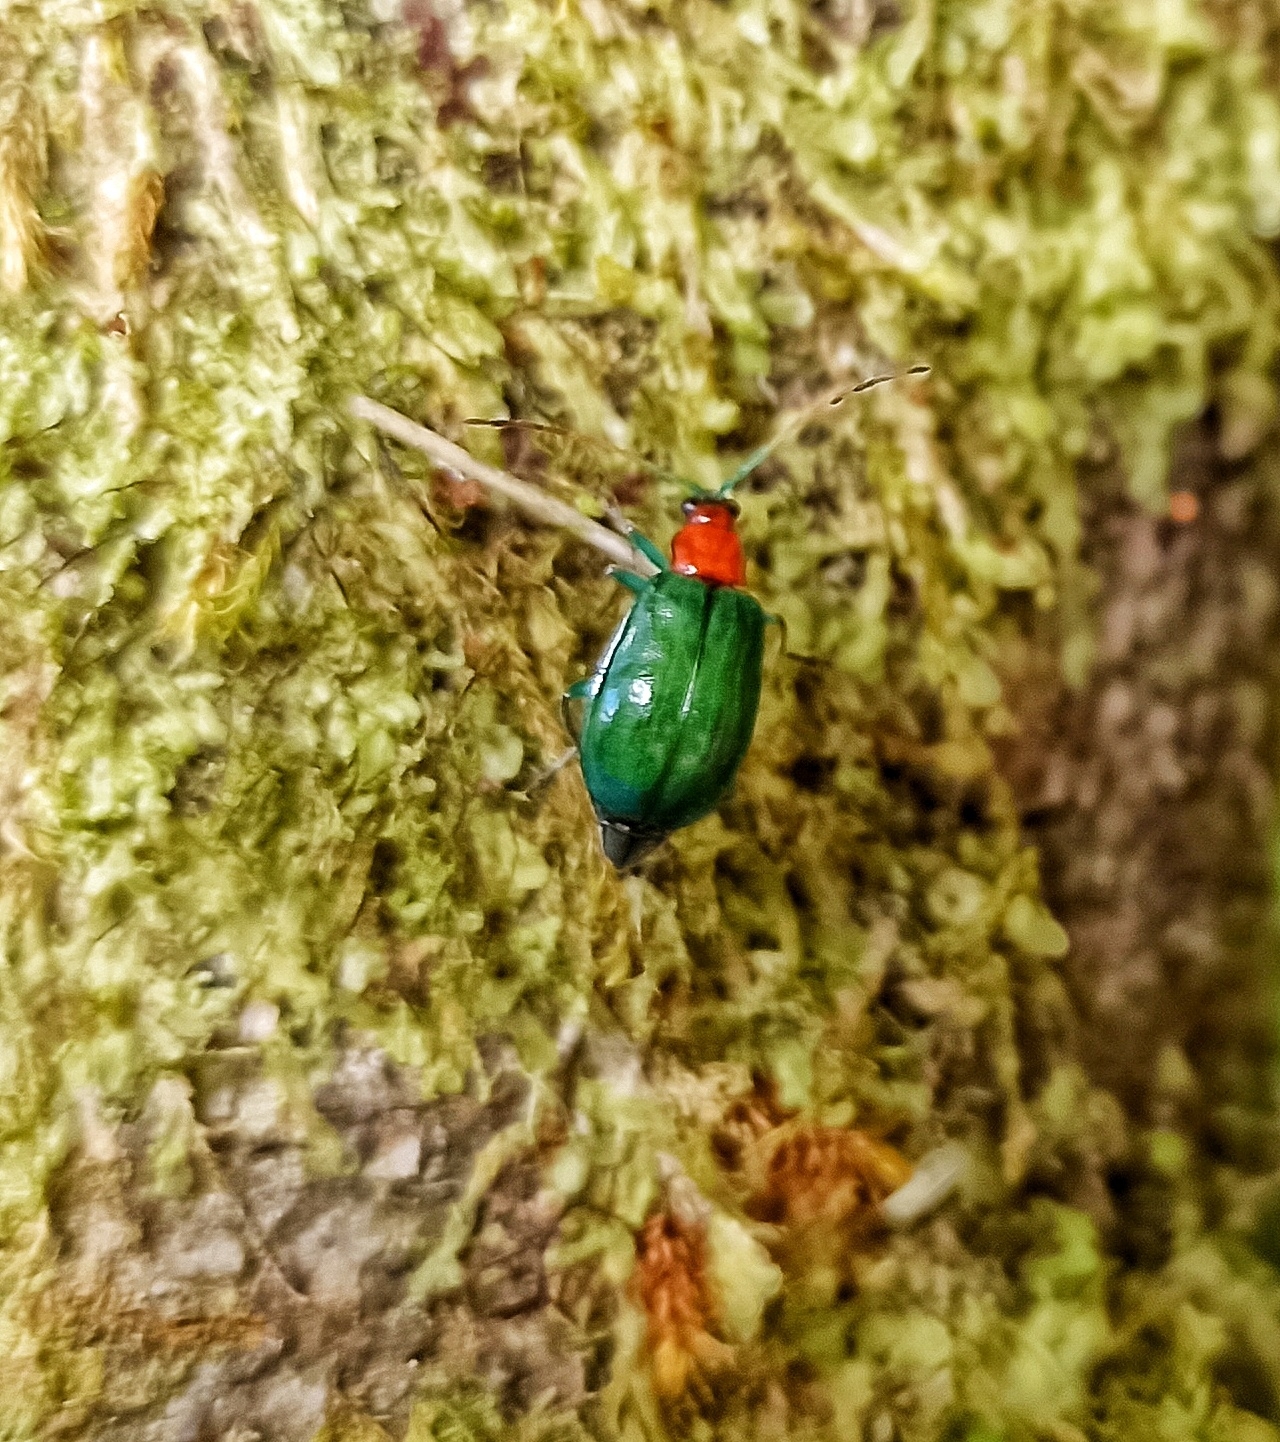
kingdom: Animalia
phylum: Arthropoda
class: Insecta
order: Coleoptera
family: Chrysomelidae
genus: Cochabamba
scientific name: Cochabamba
